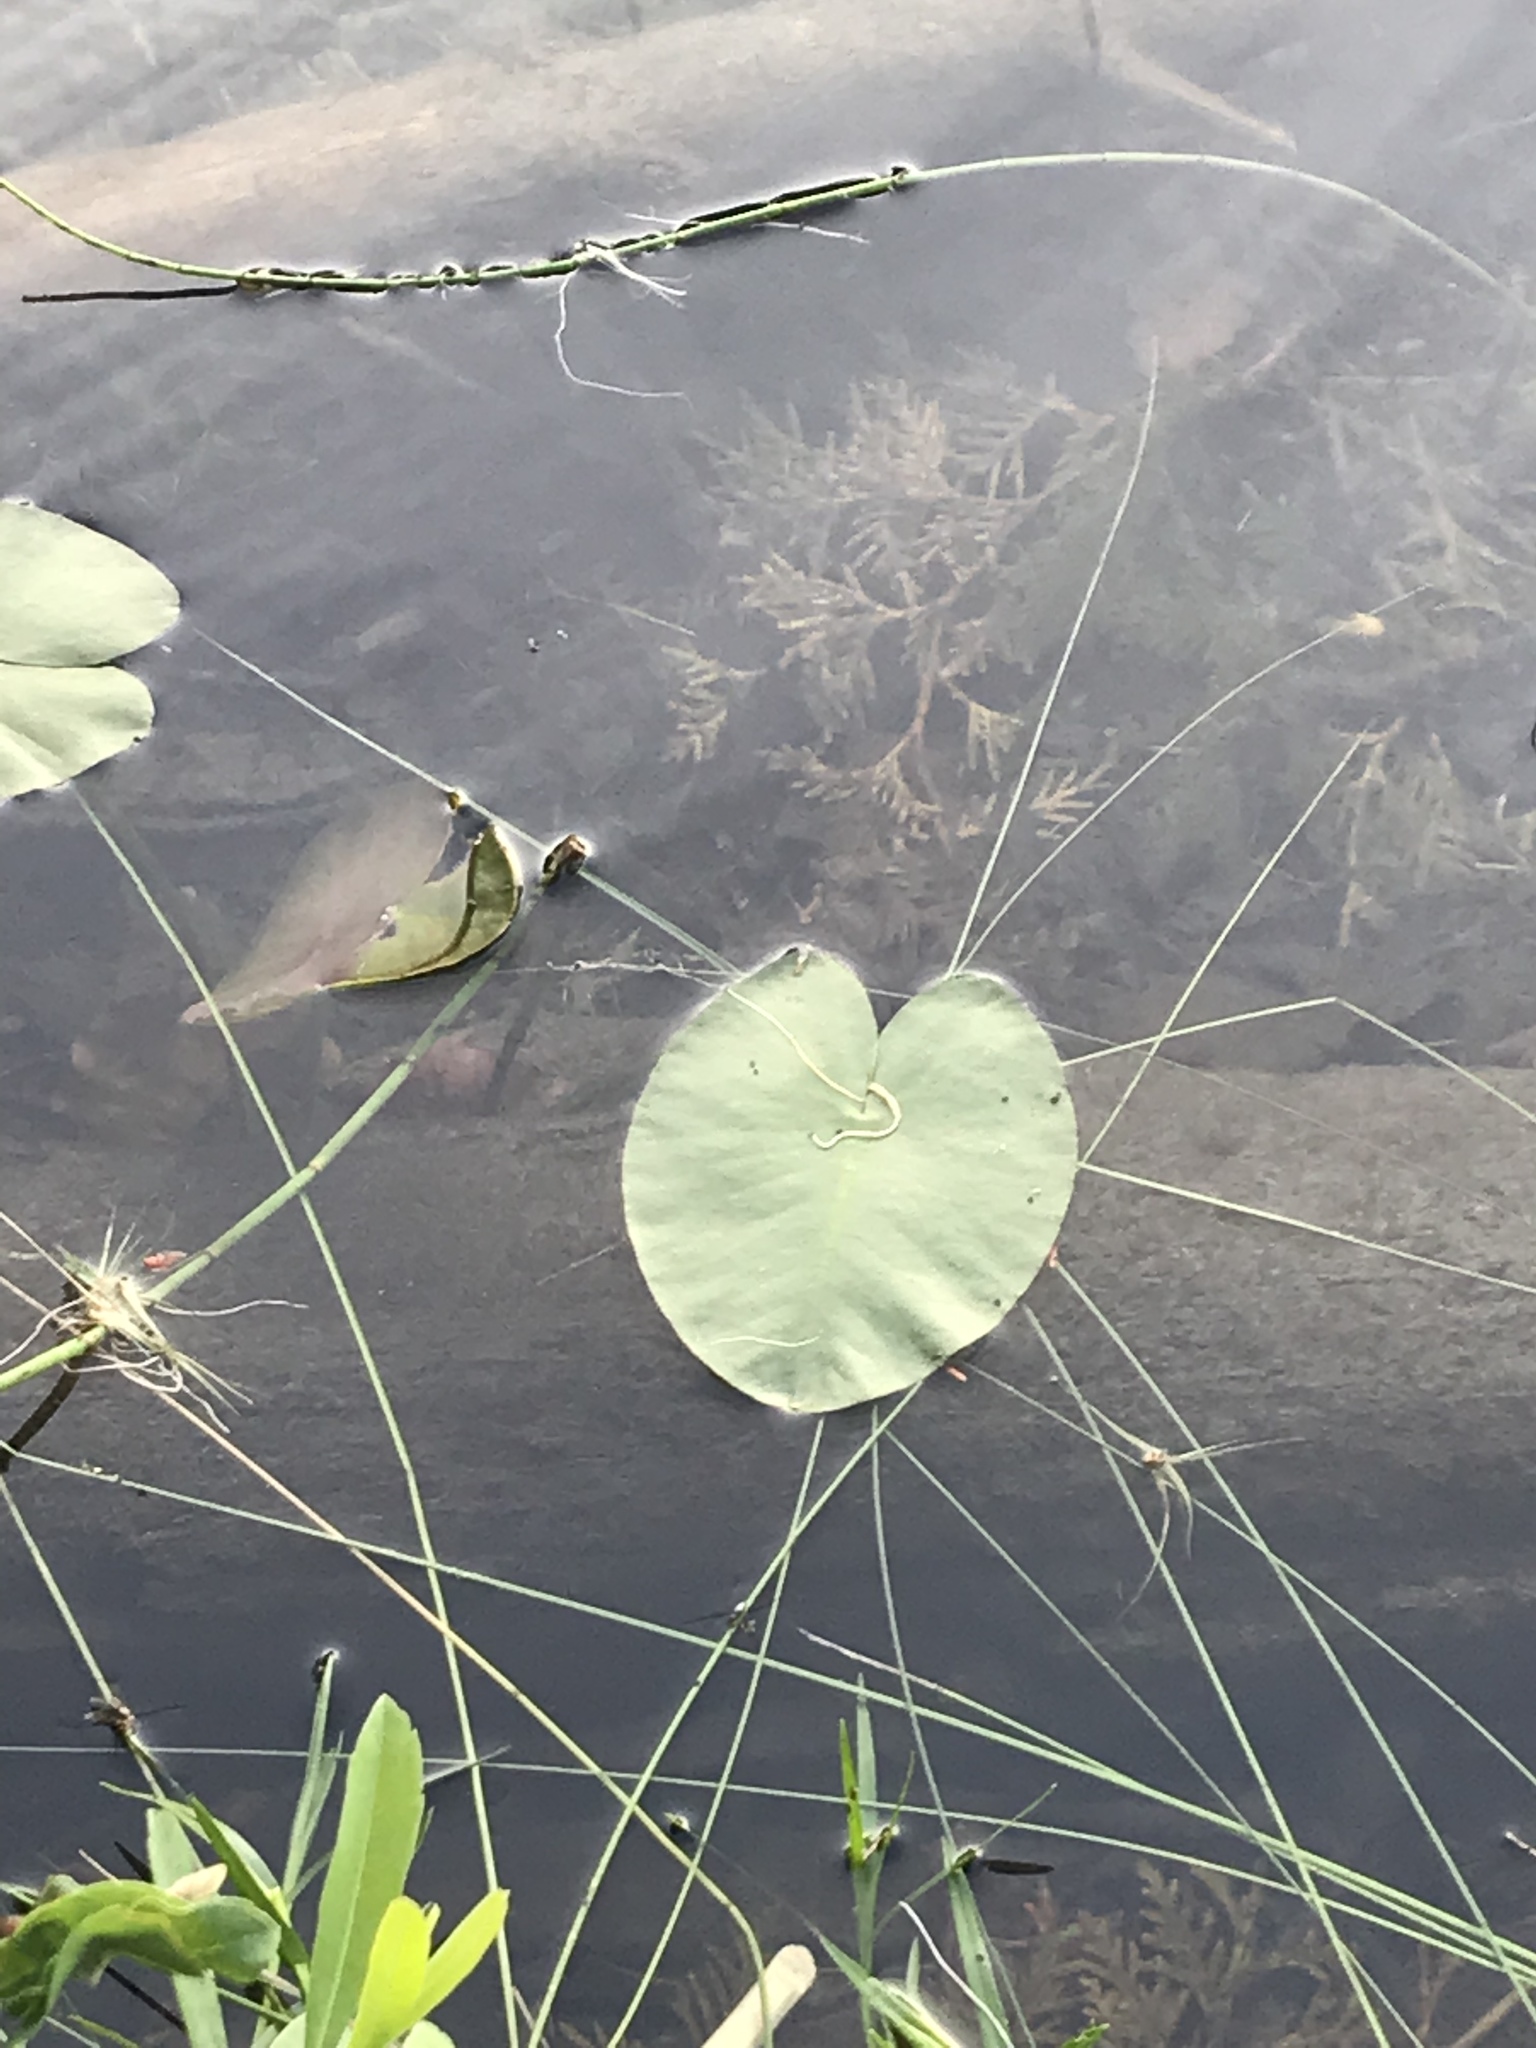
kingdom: Plantae
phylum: Tracheophyta
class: Magnoliopsida
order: Nymphaeales
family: Nymphaeaceae
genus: Nymphaea
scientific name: Nymphaea odorata
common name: Fragrant water-lily
